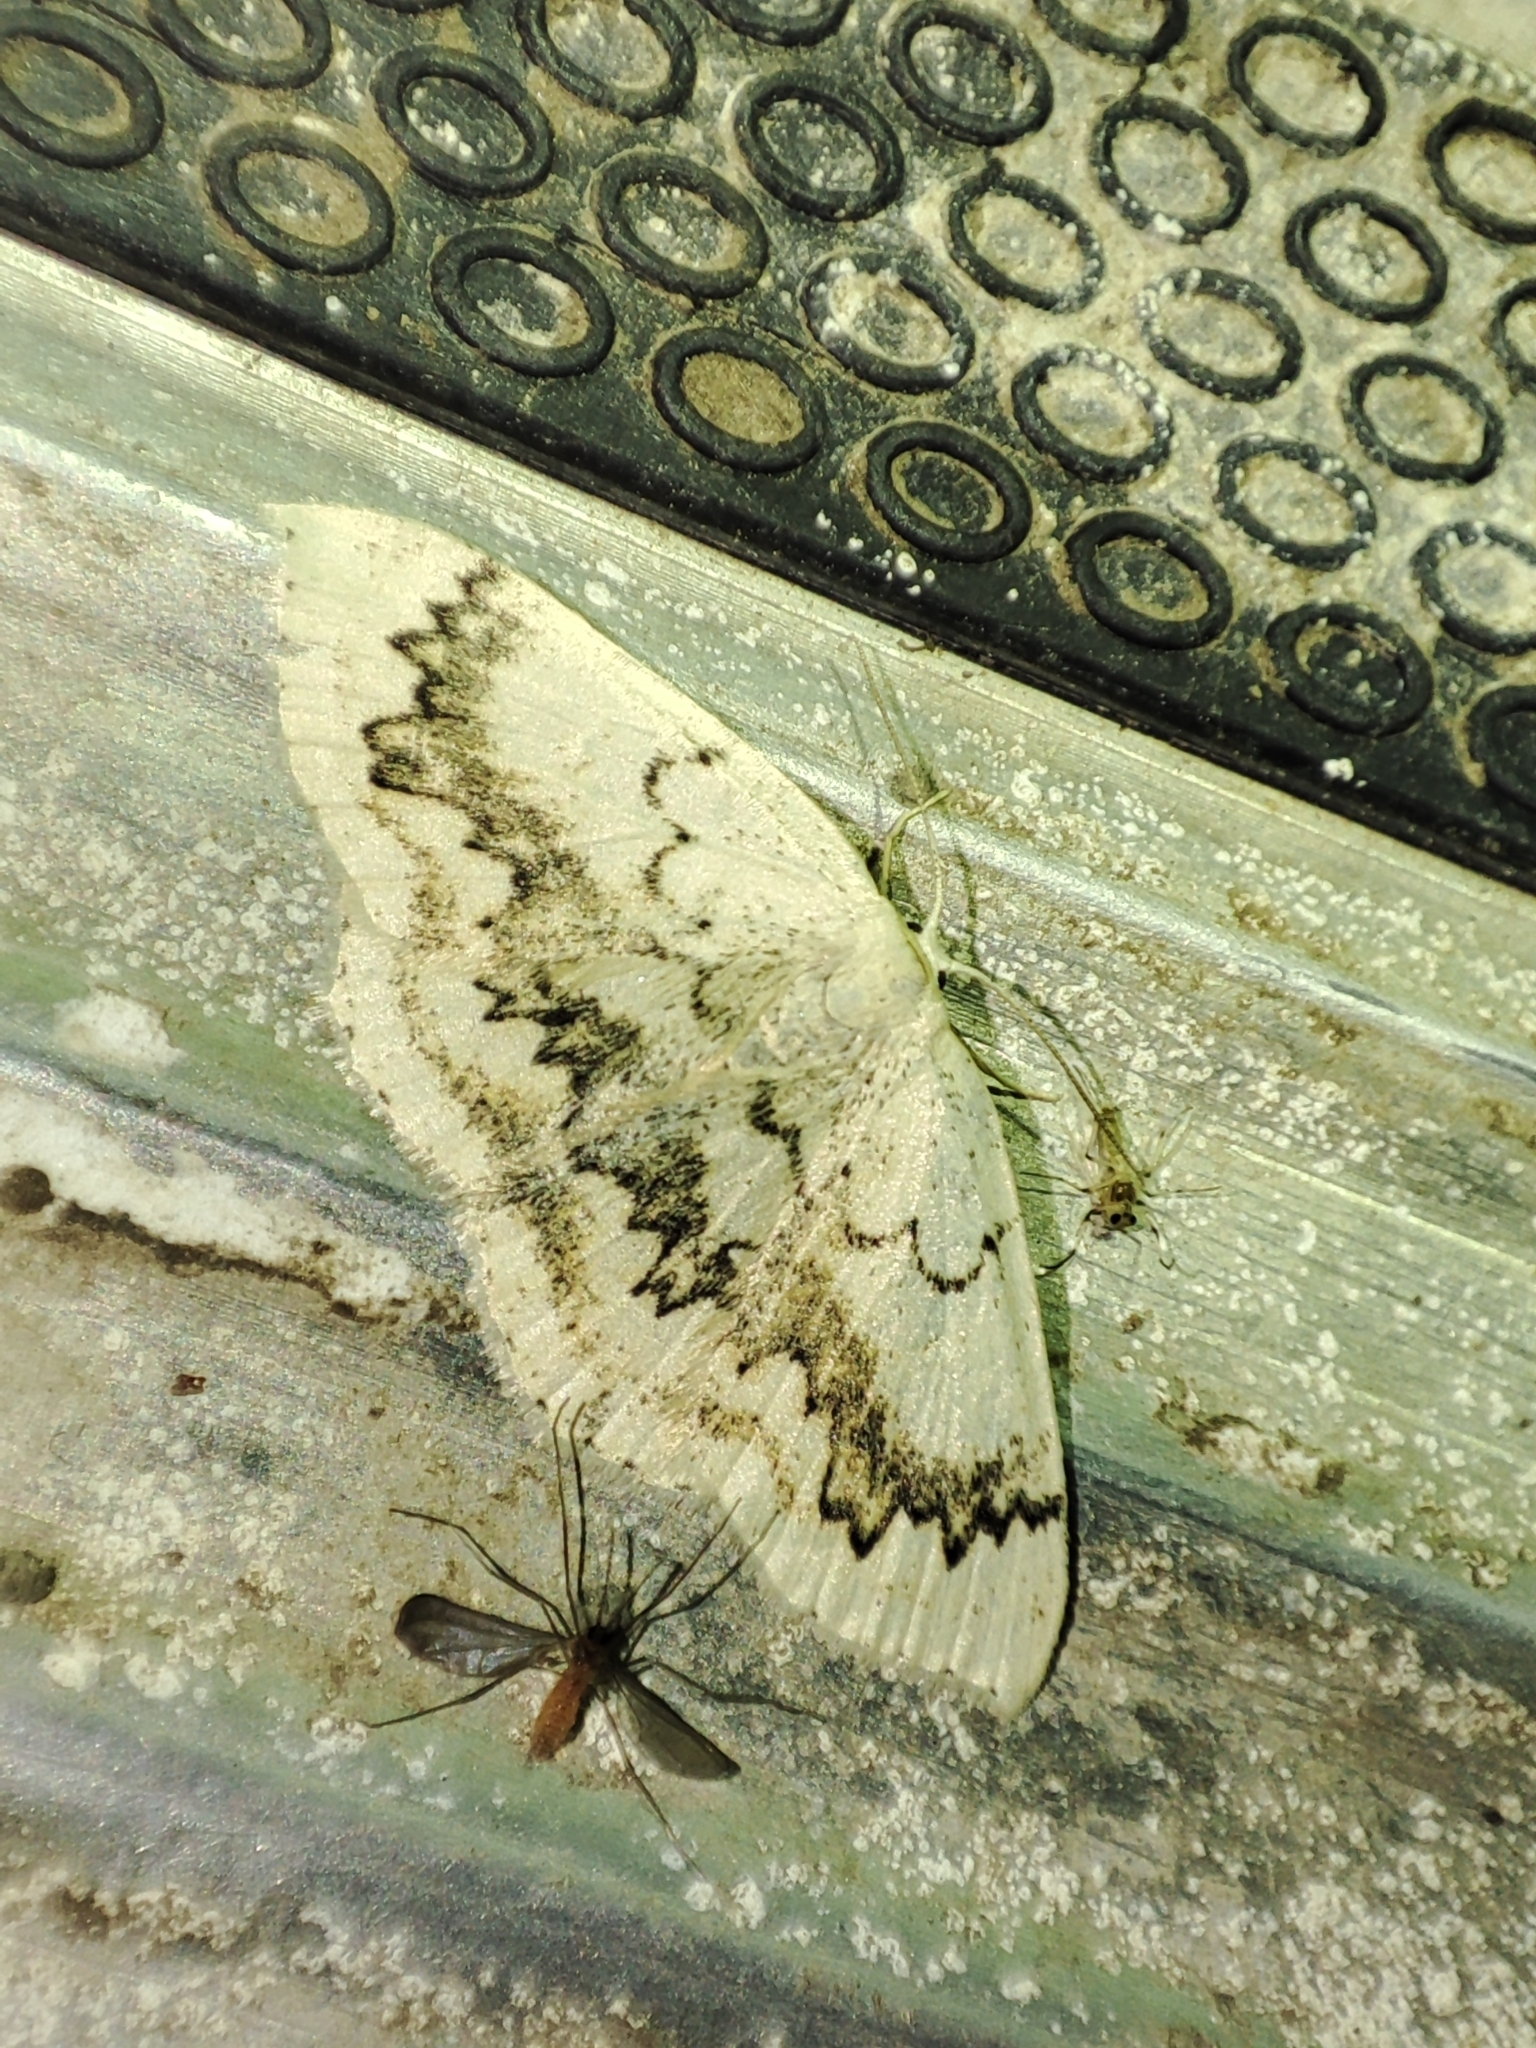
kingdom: Animalia
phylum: Arthropoda
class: Insecta
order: Lepidoptera
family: Geometridae
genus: Cyclophora
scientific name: Cyclophora annularia
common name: Mocha
